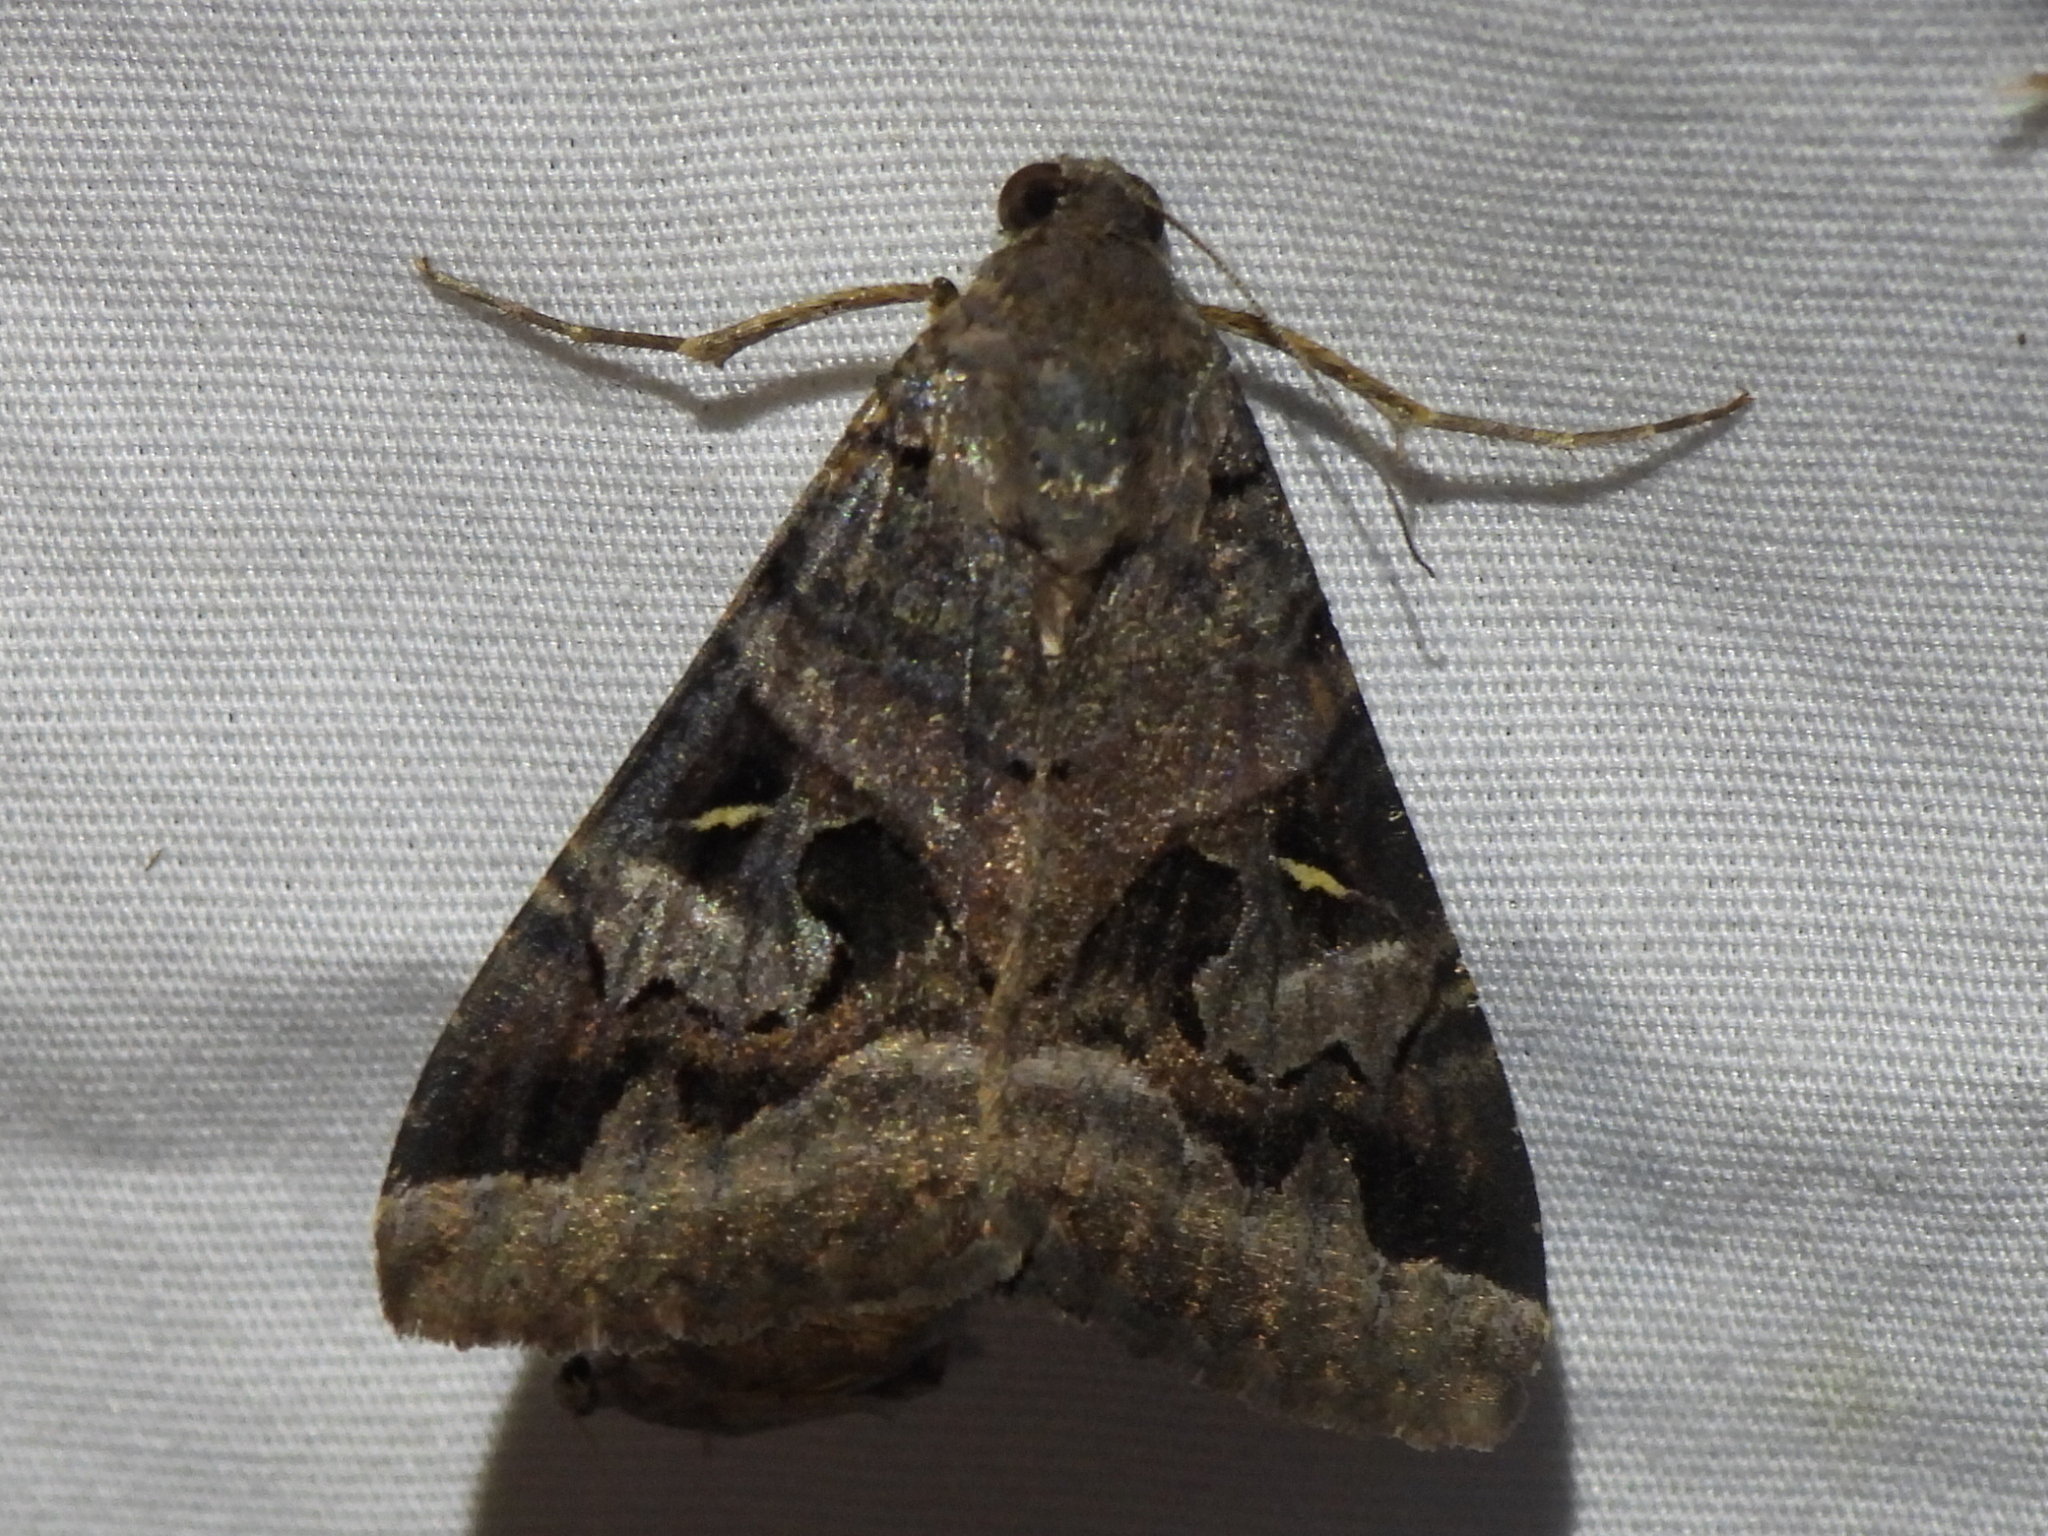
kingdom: Animalia
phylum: Arthropoda
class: Insecta
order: Lepidoptera
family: Erebidae
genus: Melipotis
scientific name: Melipotis indomita
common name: Moth
